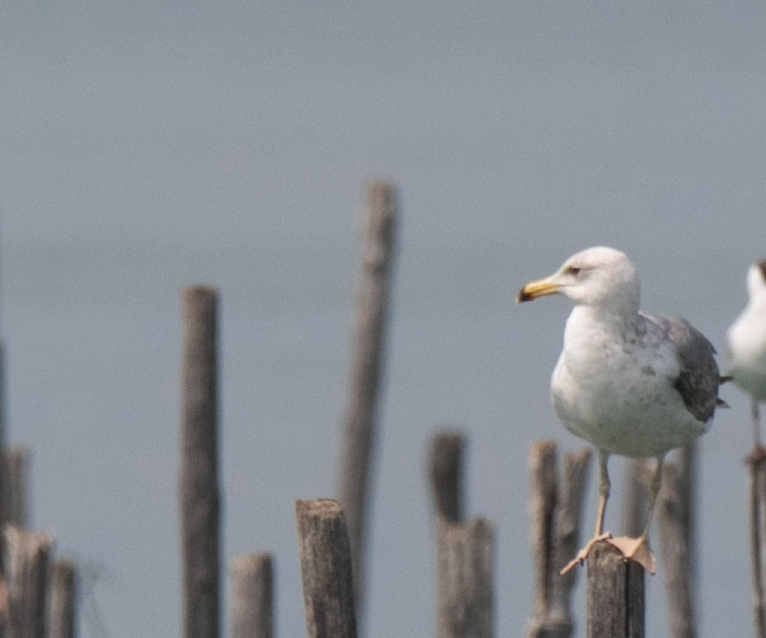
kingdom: Animalia
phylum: Chordata
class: Aves
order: Charadriiformes
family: Laridae
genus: Larus
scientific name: Larus michahellis
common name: Yellow-legged gull
